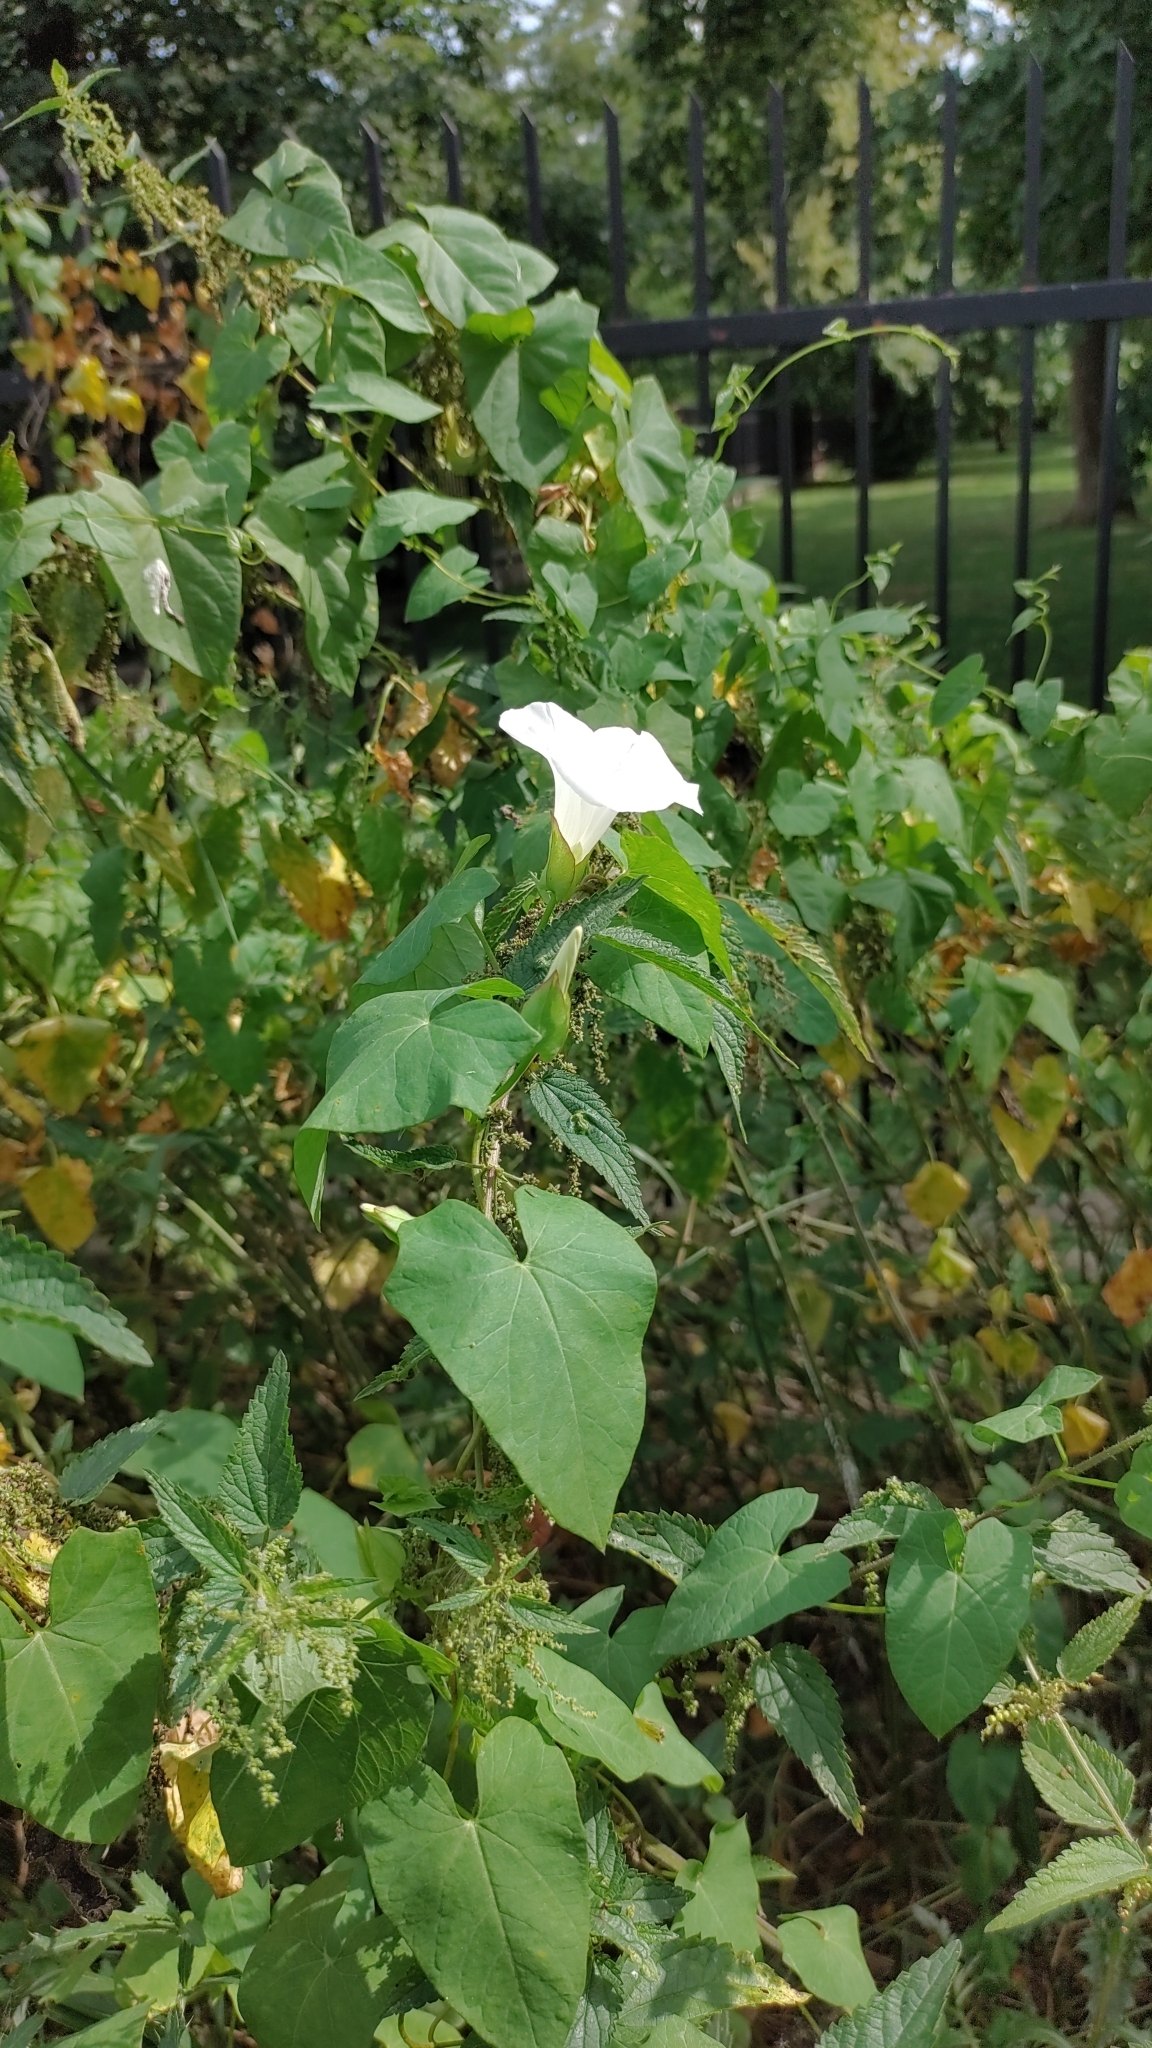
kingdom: Plantae
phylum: Tracheophyta
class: Magnoliopsida
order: Solanales
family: Convolvulaceae
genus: Calystegia
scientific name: Calystegia sepium
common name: Hedge bindweed
